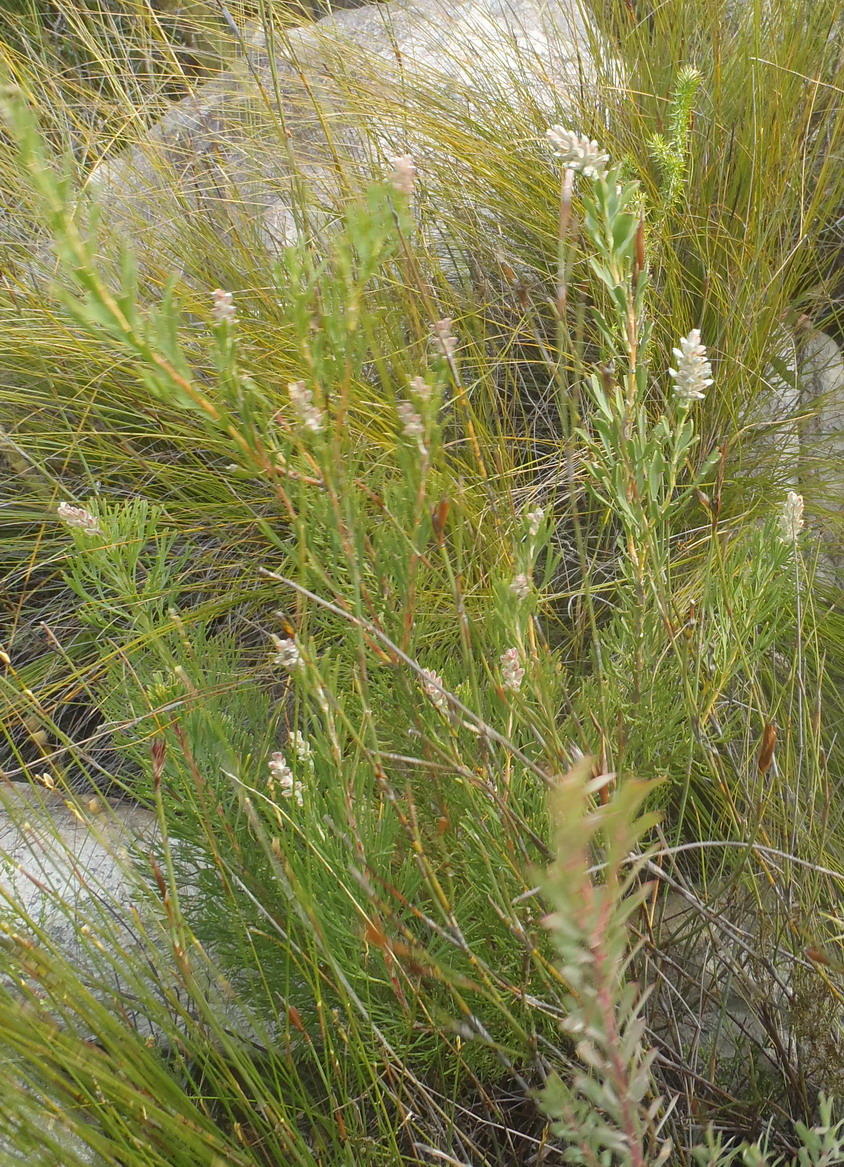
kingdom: Plantae
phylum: Tracheophyta
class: Magnoliopsida
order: Proteales
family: Proteaceae
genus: Paranomus
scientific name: Paranomus dregei
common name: Scented sceptre
